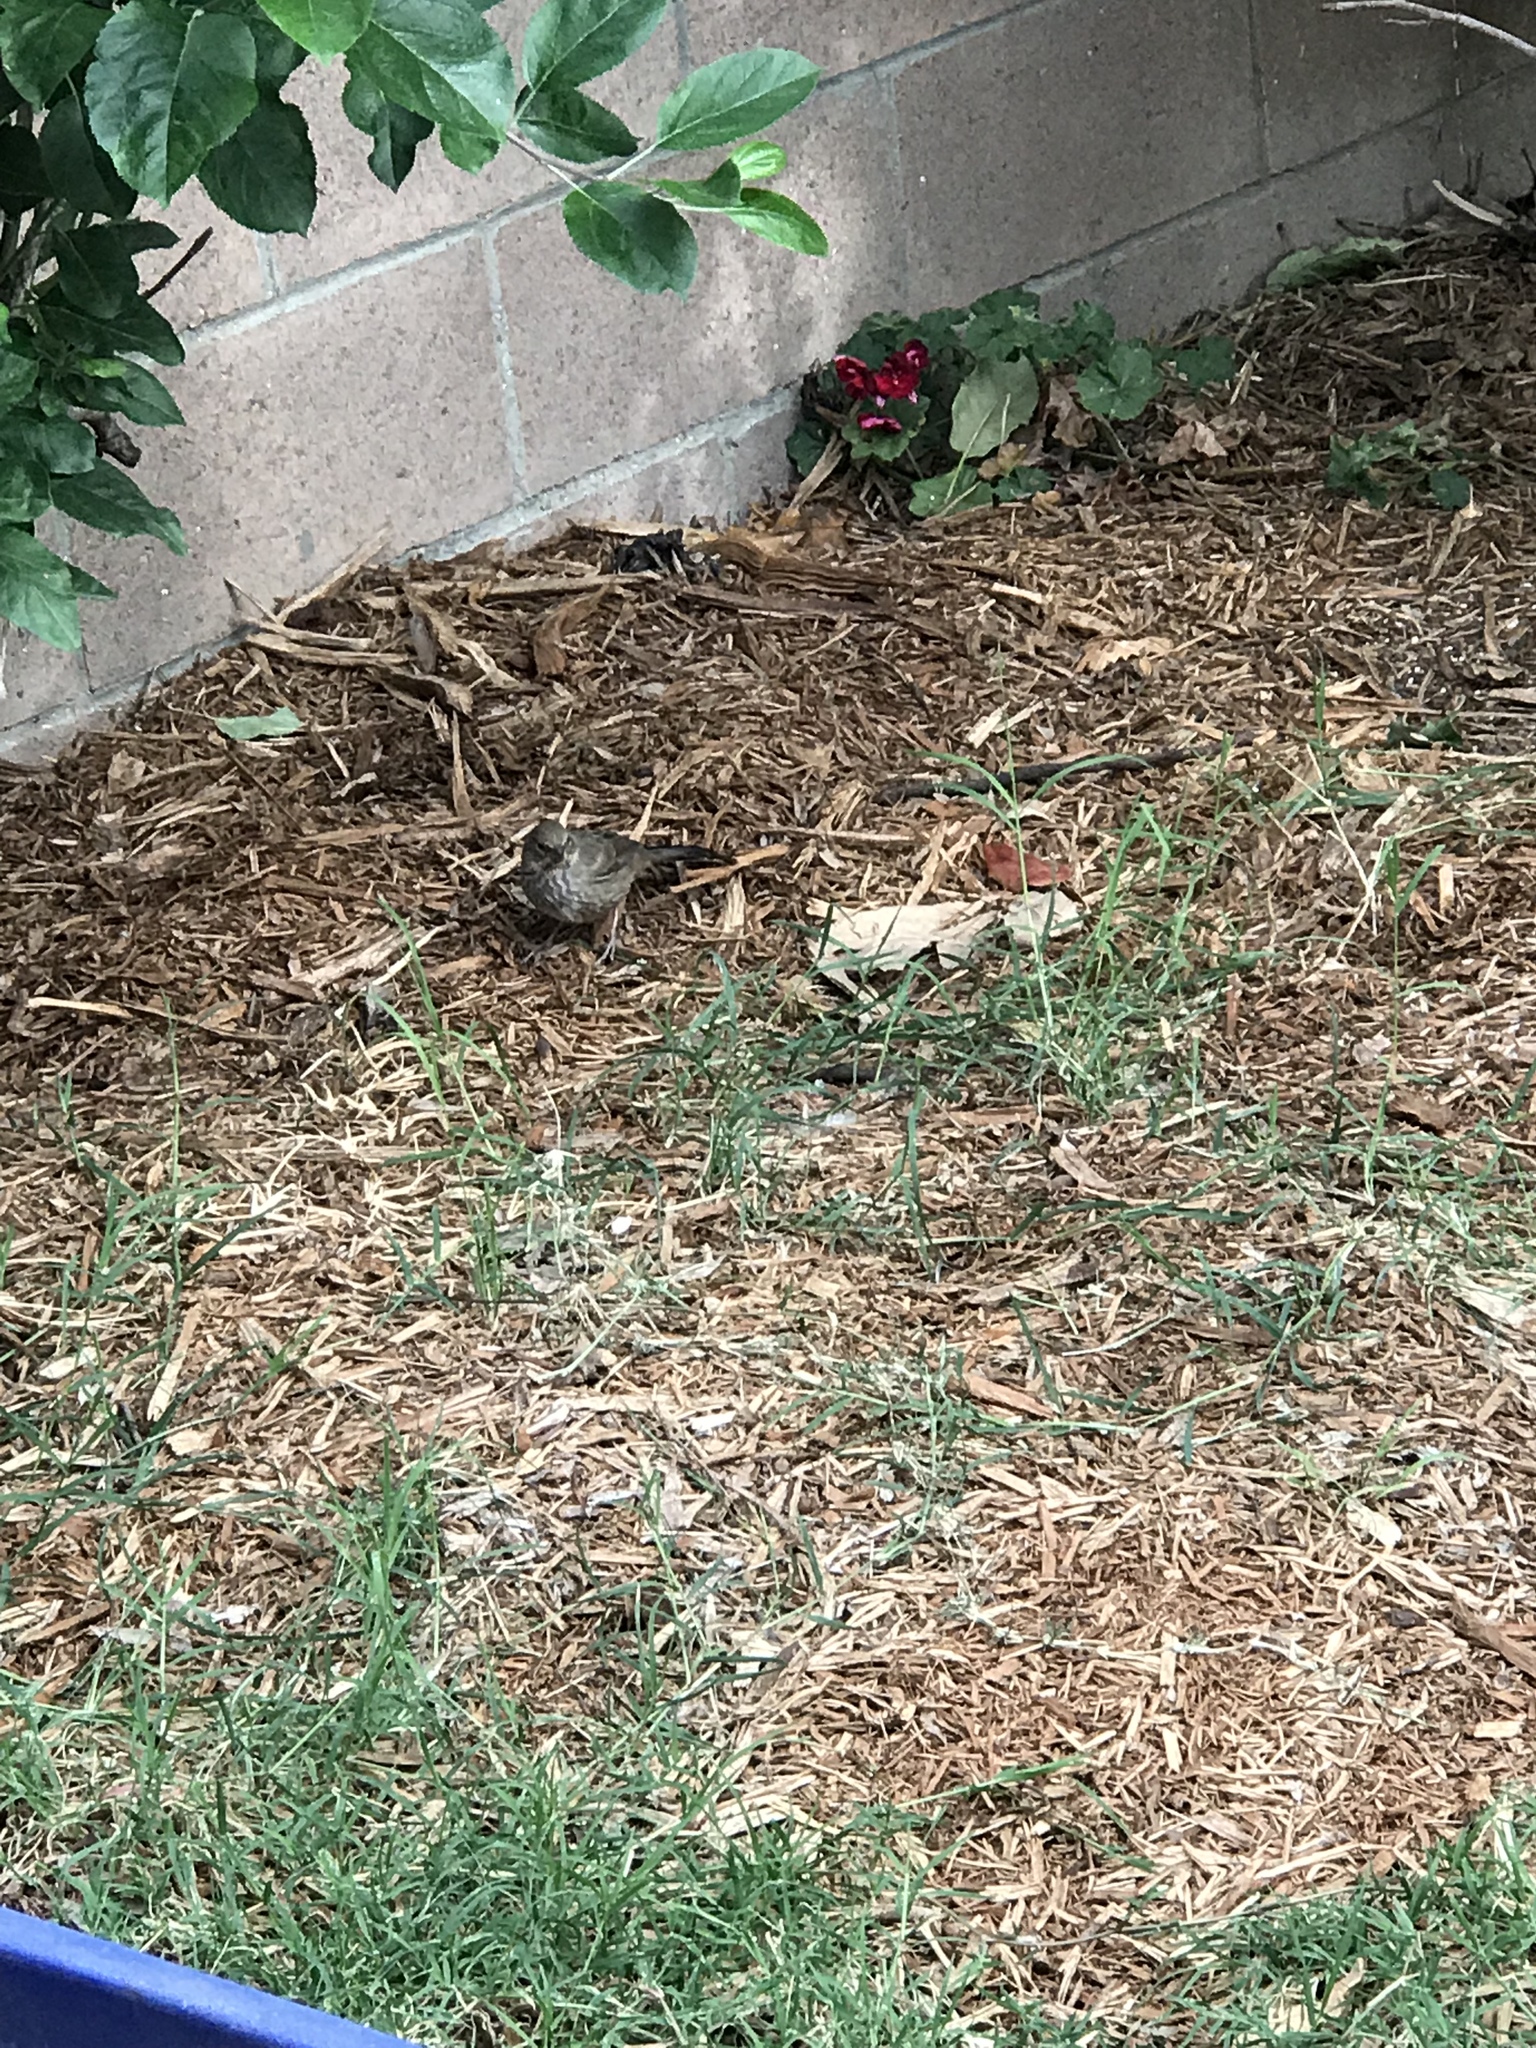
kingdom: Animalia
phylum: Chordata
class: Aves
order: Passeriformes
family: Passerellidae
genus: Melozone
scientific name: Melozone crissalis
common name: California towhee
